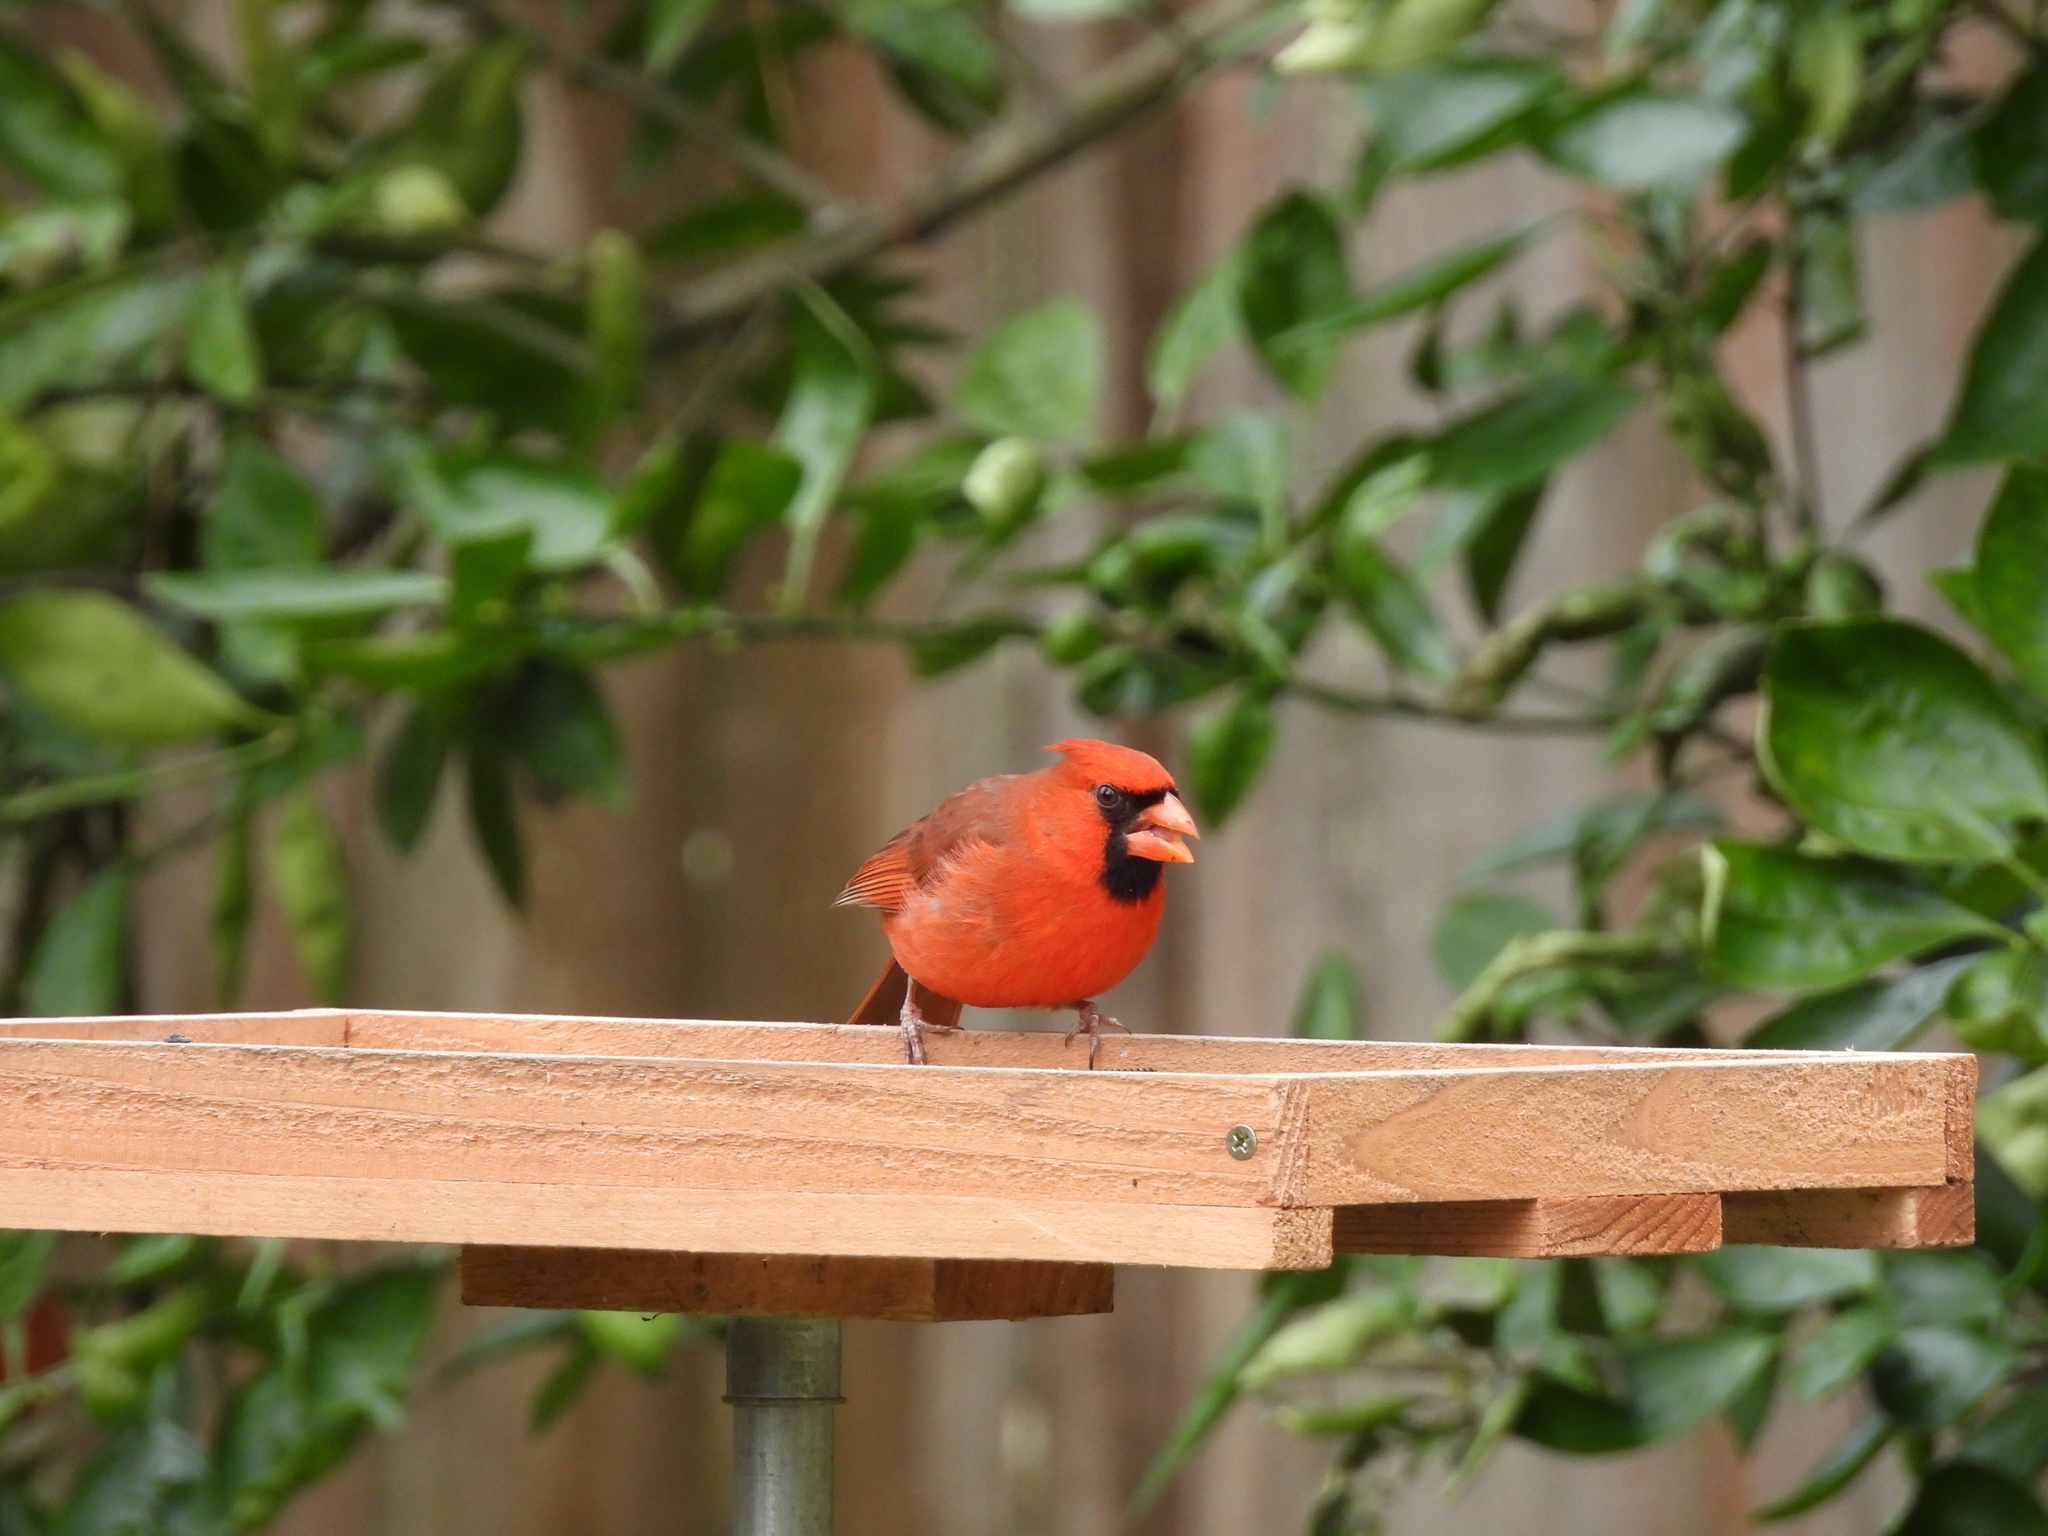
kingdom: Animalia
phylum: Chordata
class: Aves
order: Passeriformes
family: Cardinalidae
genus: Cardinalis
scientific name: Cardinalis cardinalis
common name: Northern cardinal
